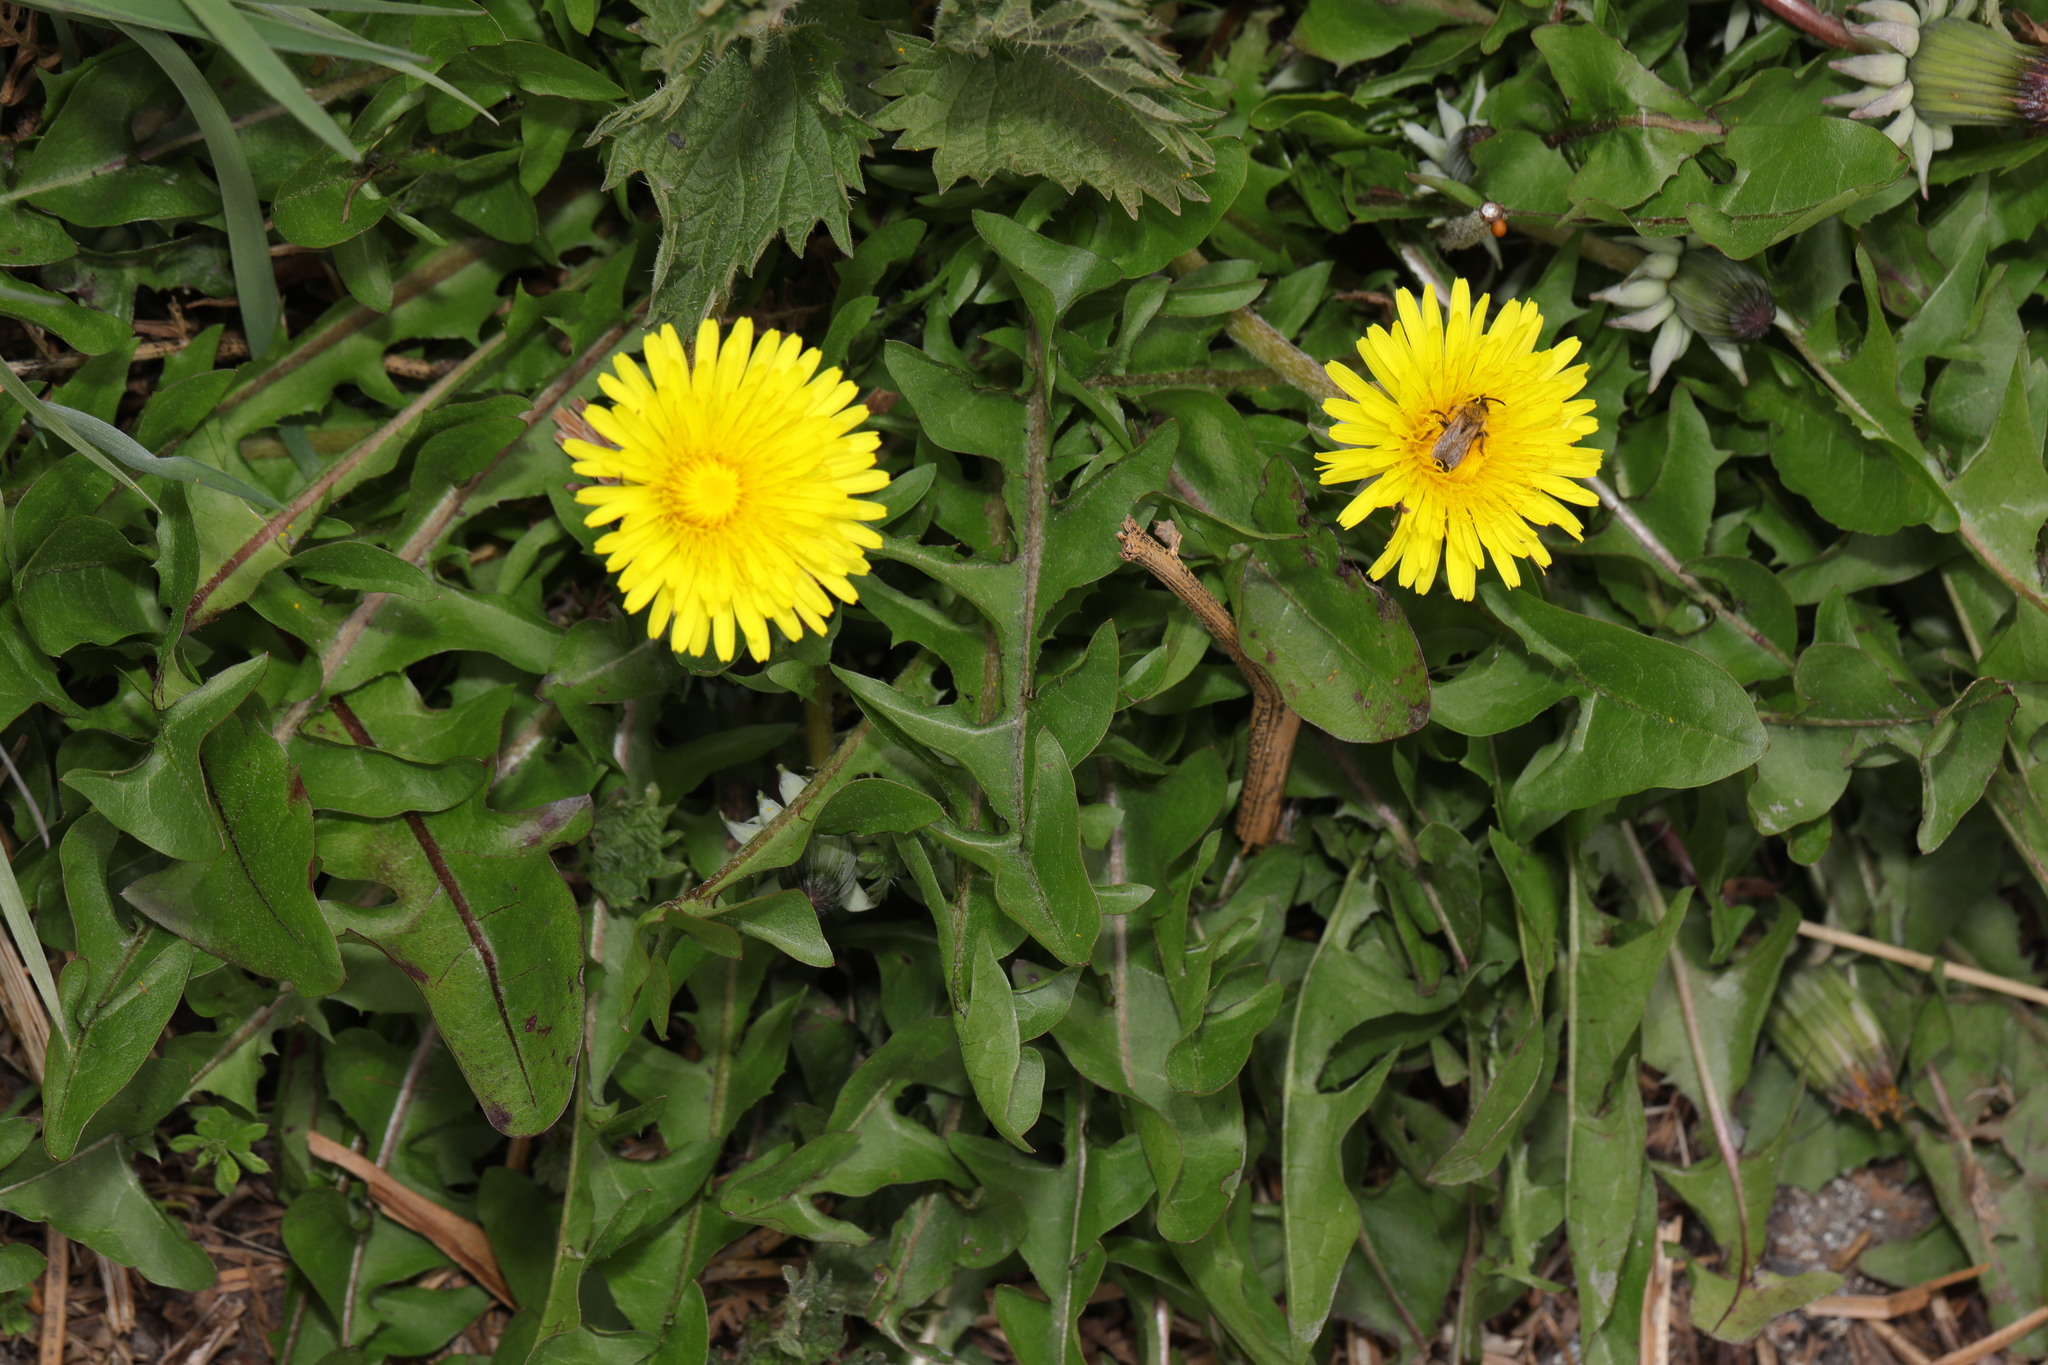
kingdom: Plantae
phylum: Tracheophyta
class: Magnoliopsida
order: Asterales
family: Asteraceae
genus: Taraxacum
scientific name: Taraxacum officinale
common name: Common dandelion
